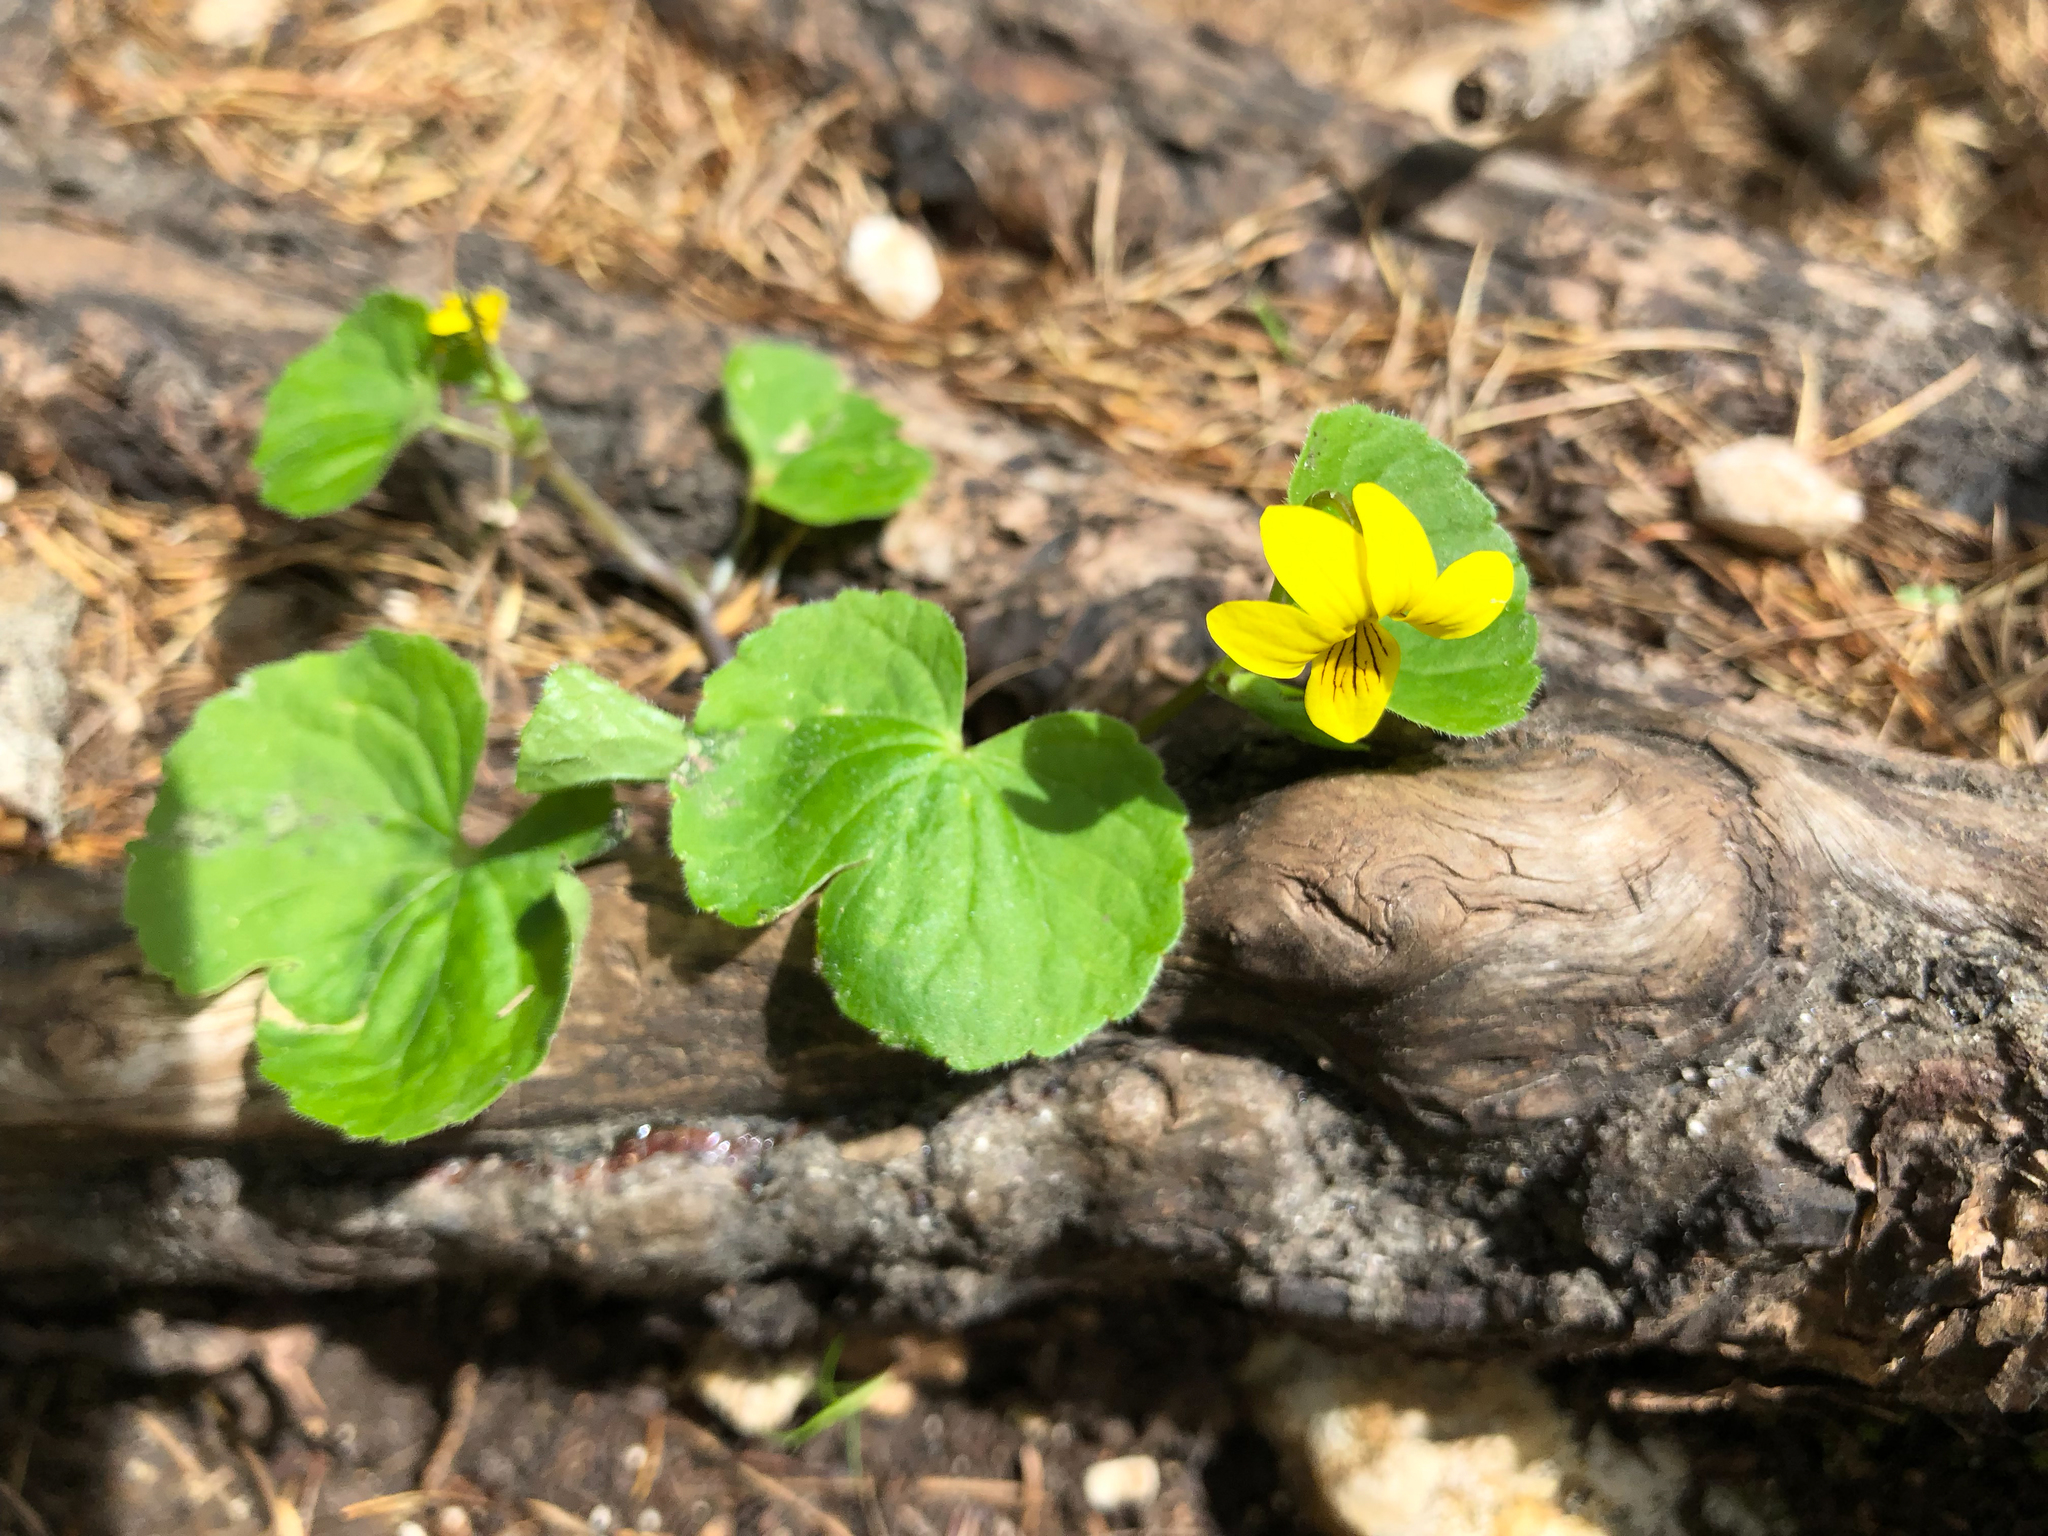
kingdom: Plantae
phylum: Tracheophyta
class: Magnoliopsida
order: Malpighiales
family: Violaceae
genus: Viola
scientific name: Viola biflora
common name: Alpine yellow violet
